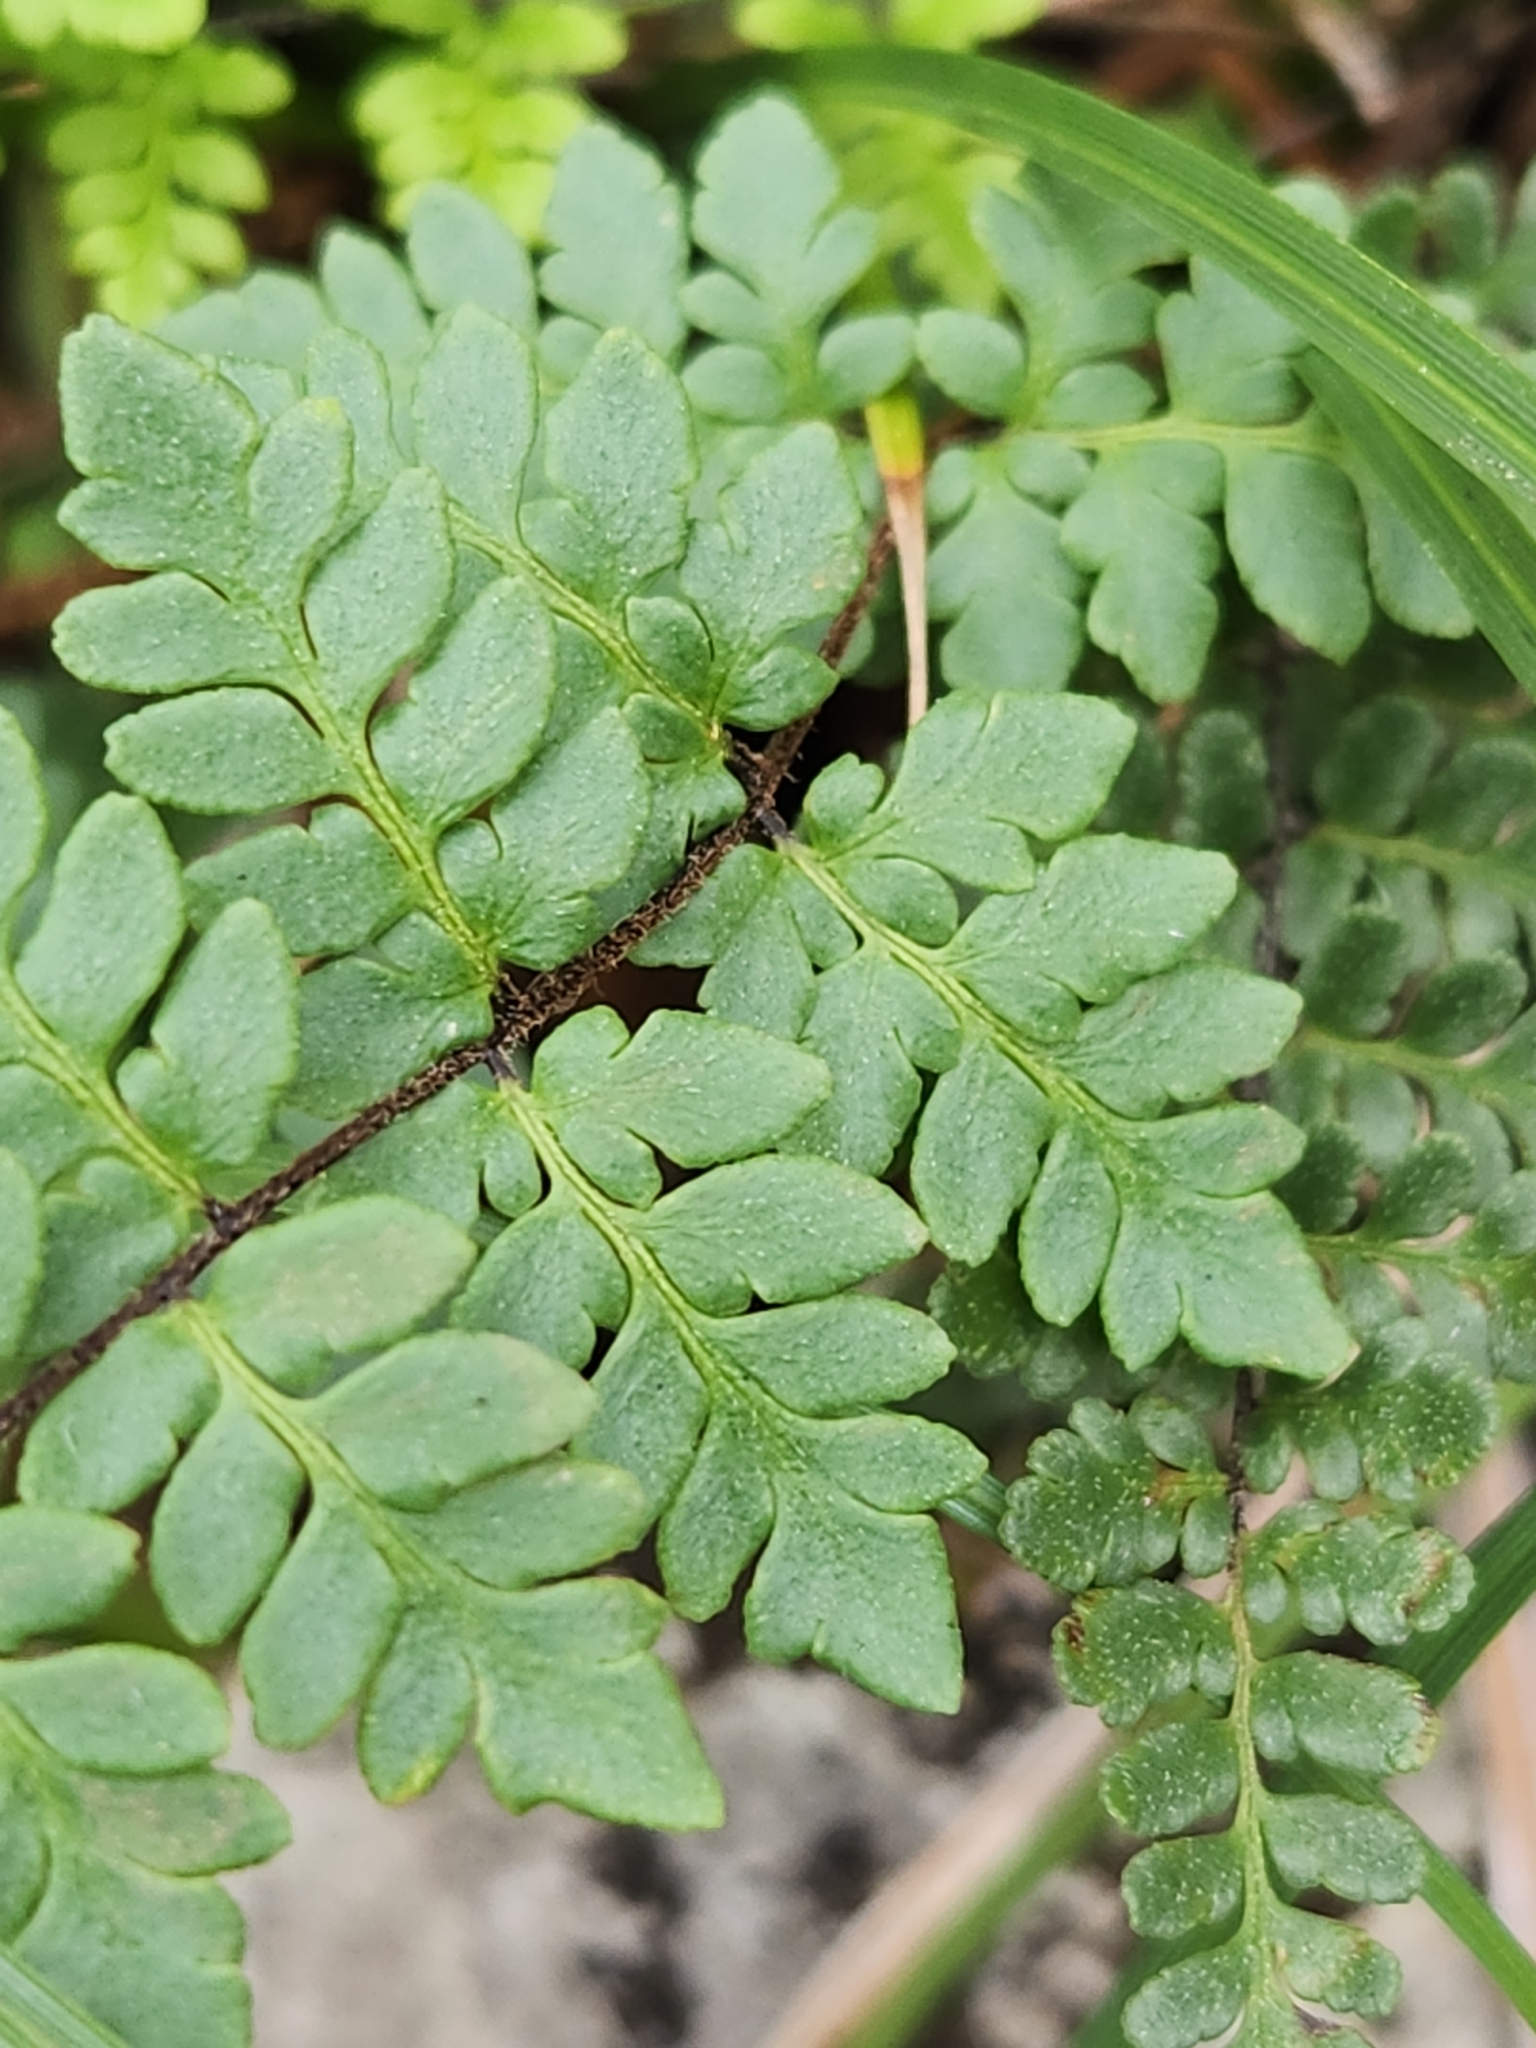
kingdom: Plantae
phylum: Tracheophyta
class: Polypodiopsida
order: Polypodiales
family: Pteridaceae
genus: Myriopteris
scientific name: Myriopteris alabamensis
